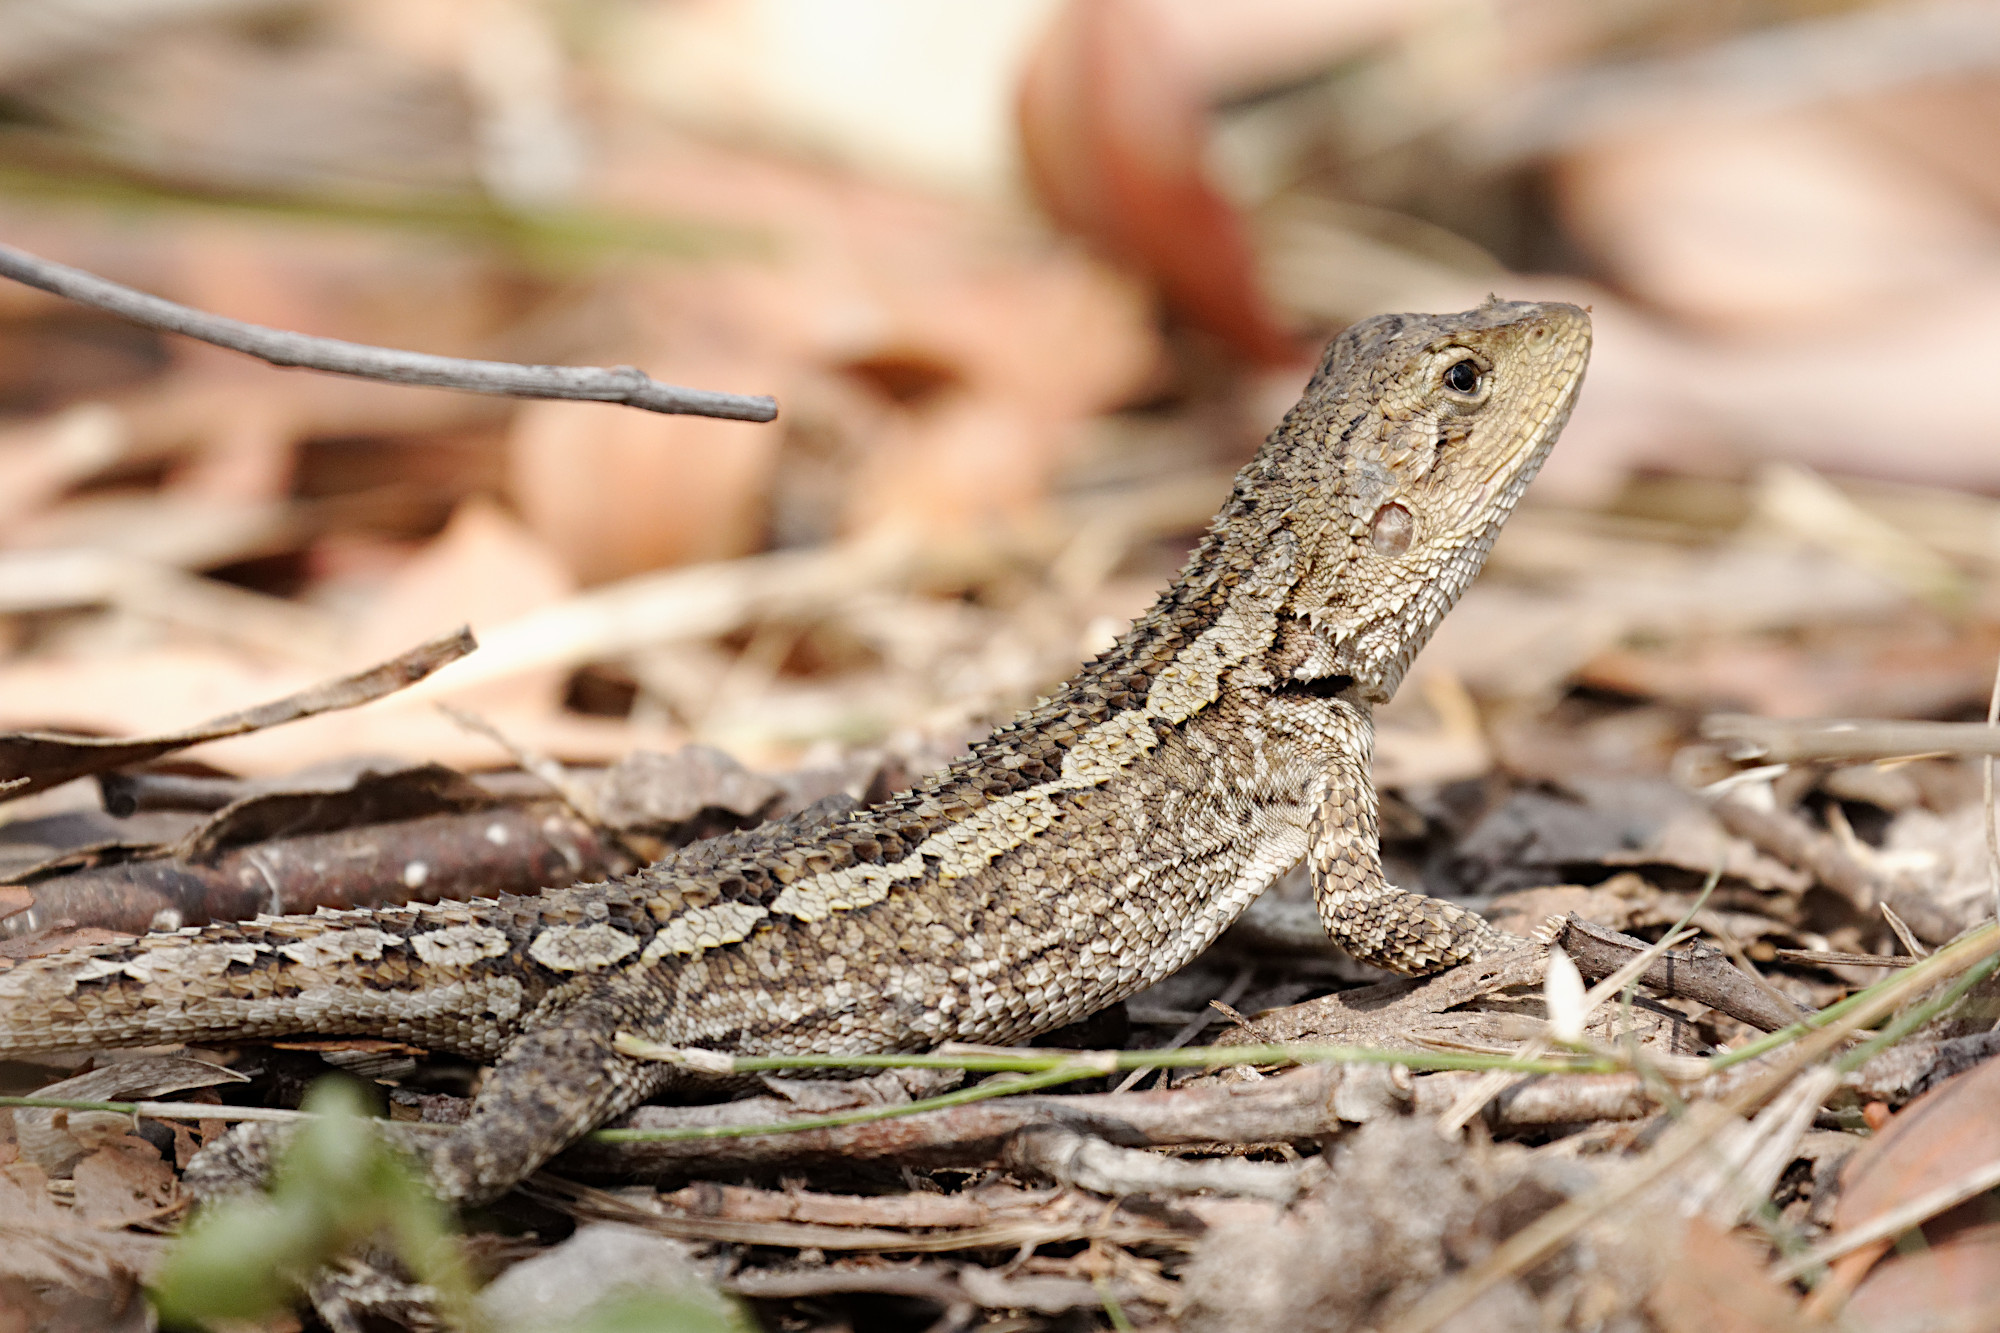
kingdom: Animalia
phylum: Chordata
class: Squamata
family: Agamidae
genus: Amphibolurus
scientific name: Amphibolurus muricatus
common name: Jacky lizard
